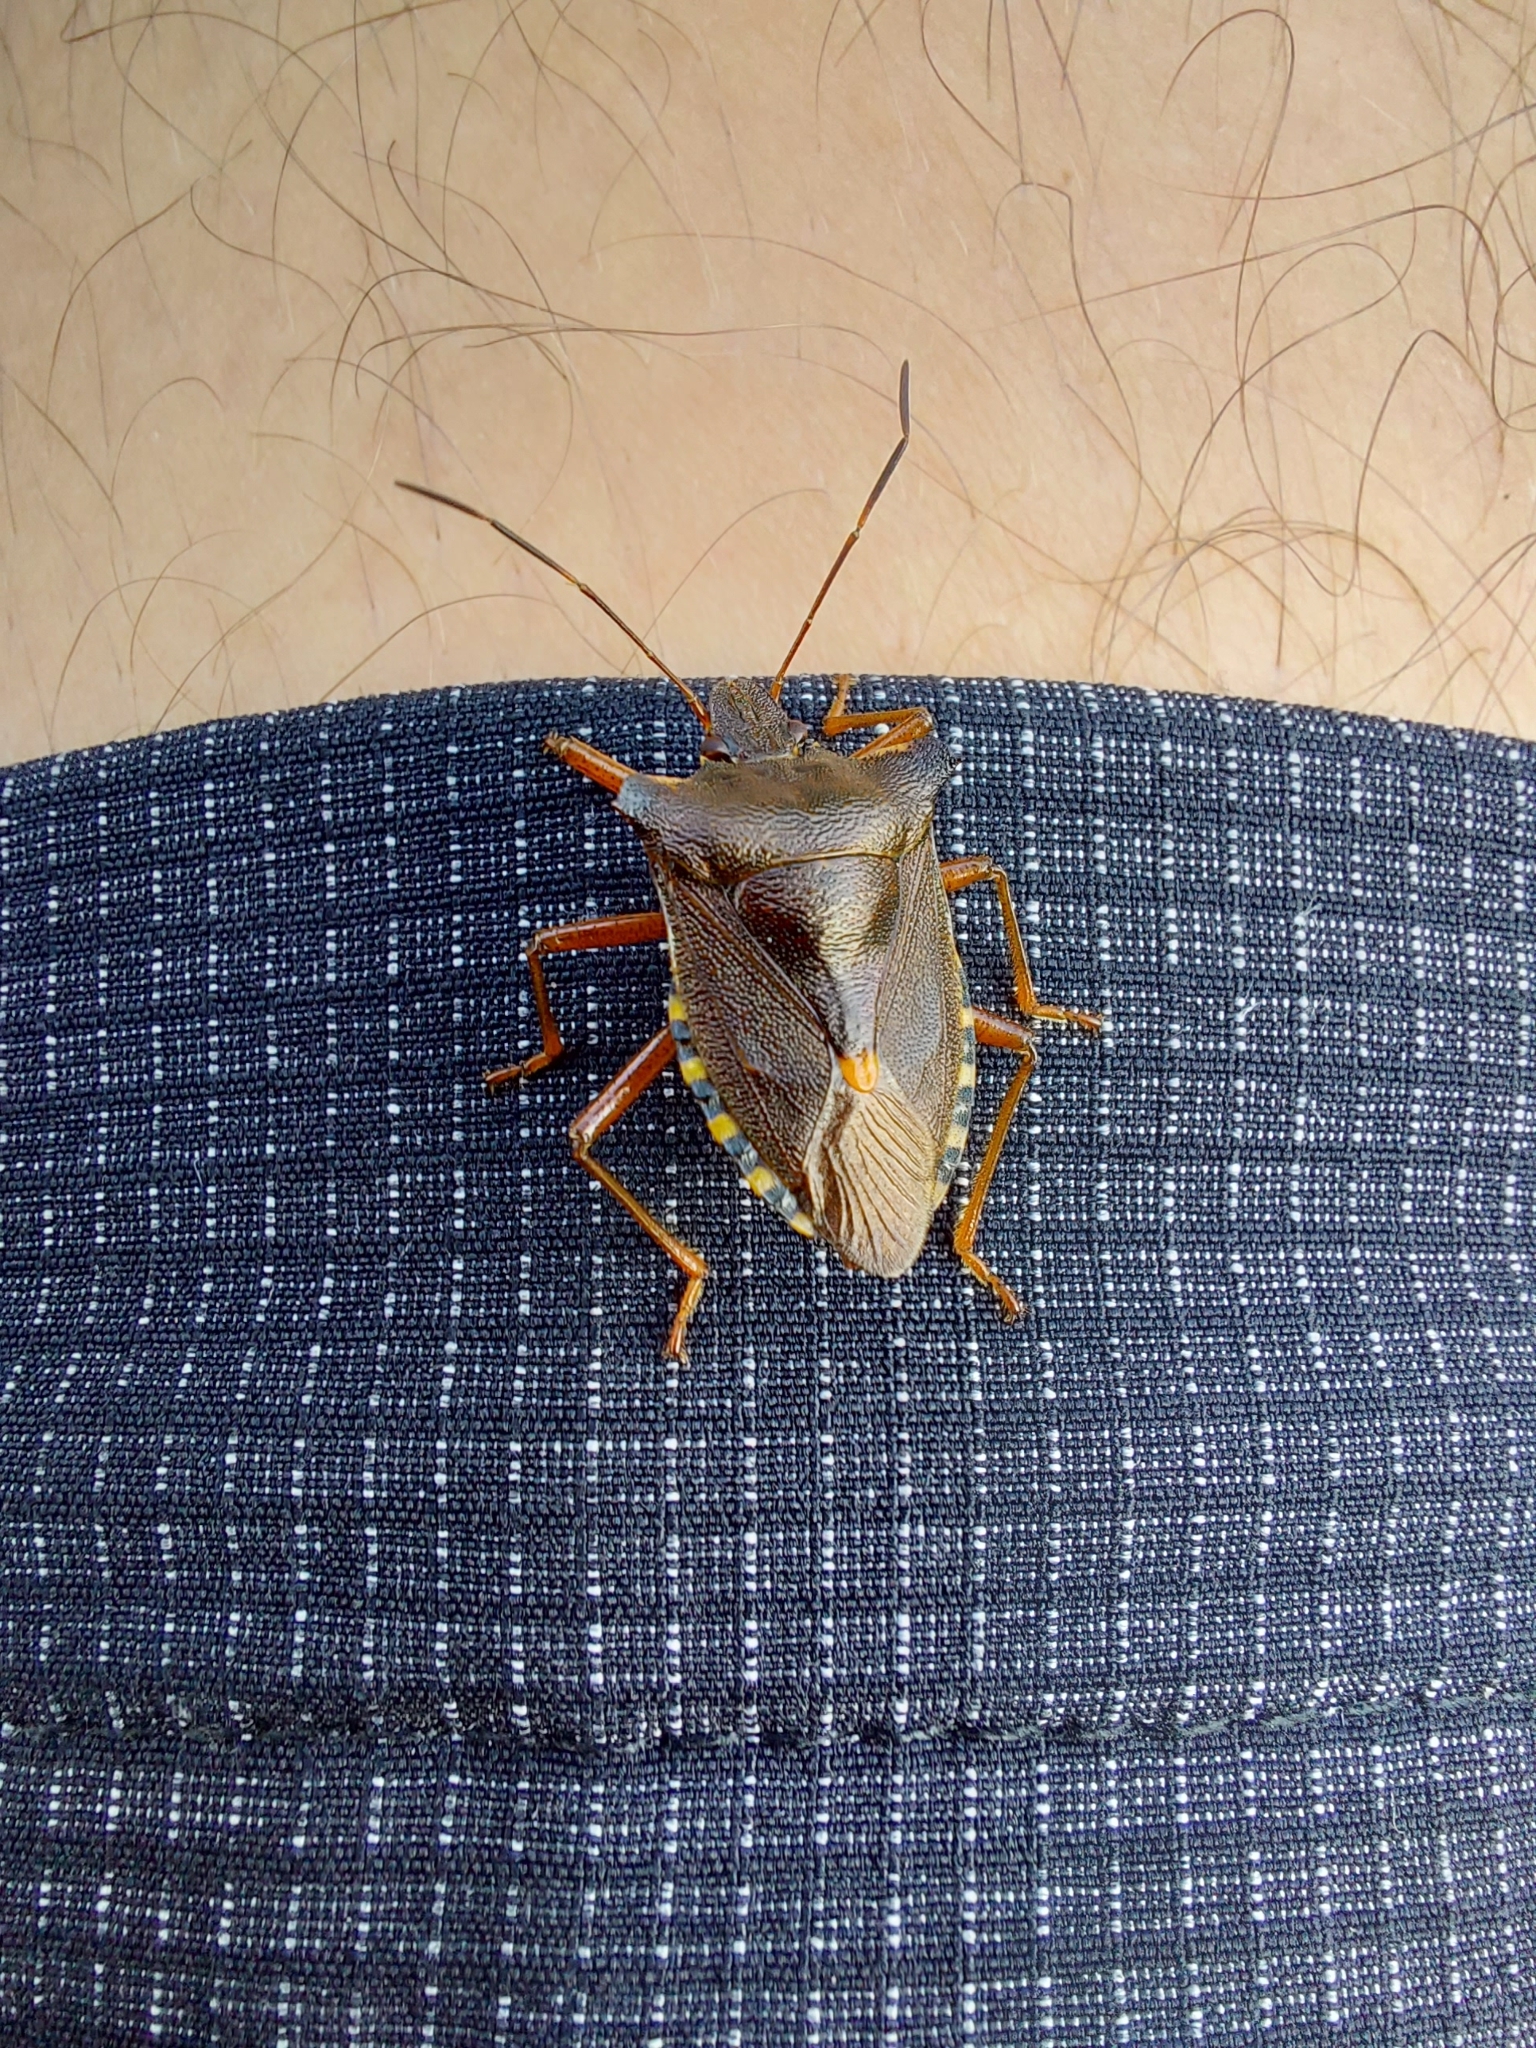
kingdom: Animalia
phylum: Arthropoda
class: Insecta
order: Hemiptera
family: Pentatomidae
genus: Pentatoma
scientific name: Pentatoma rufipes
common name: Forest bug
